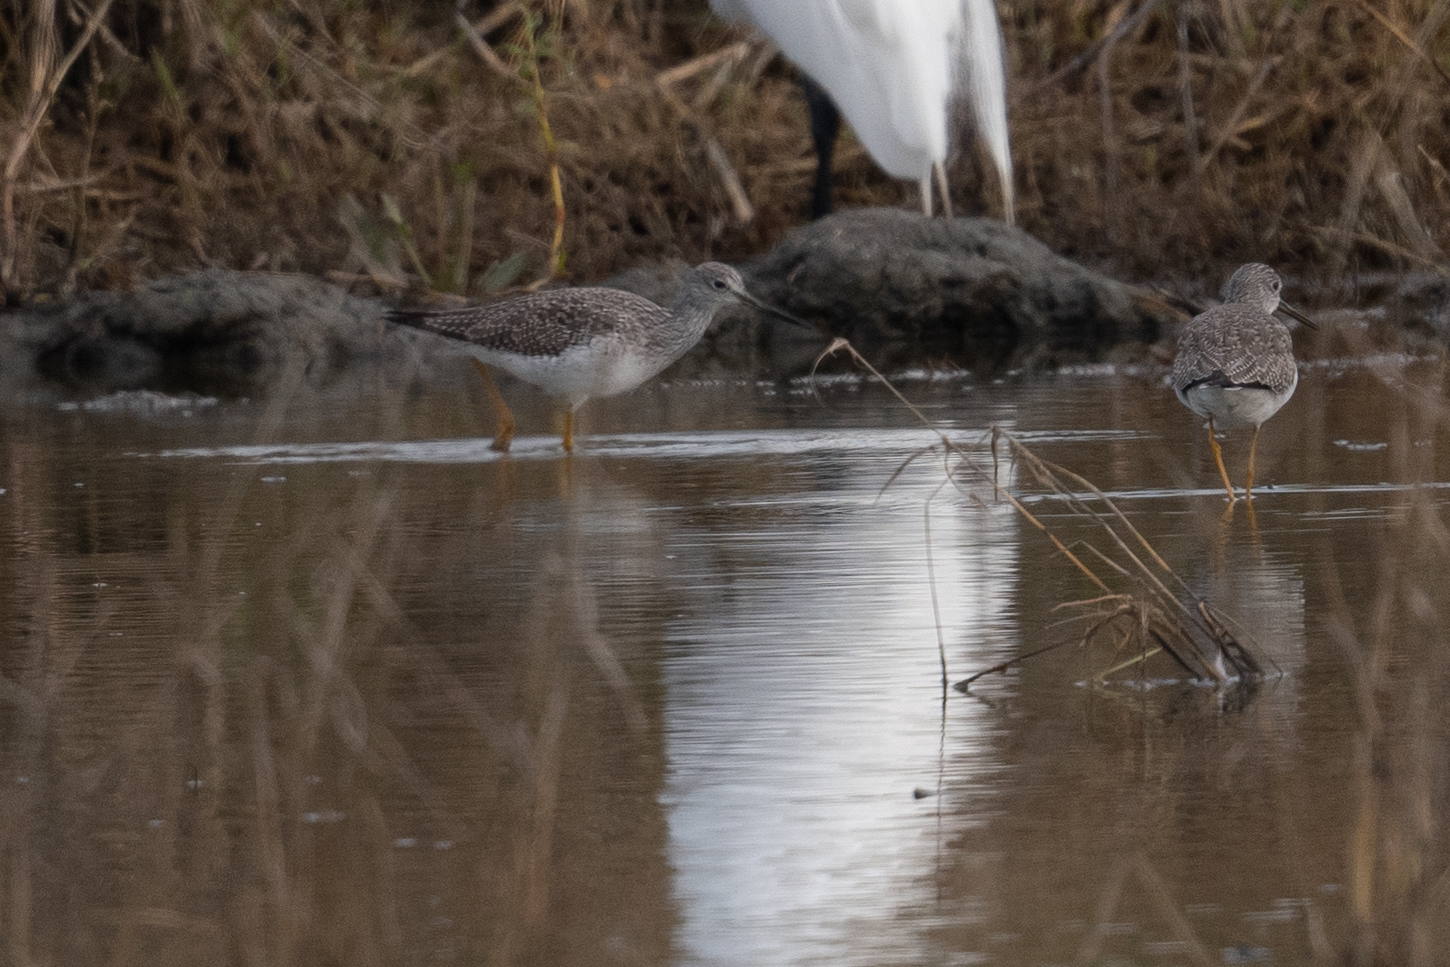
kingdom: Animalia
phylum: Chordata
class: Aves
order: Charadriiformes
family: Scolopacidae
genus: Tringa
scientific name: Tringa melanoleuca
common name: Greater yellowlegs
